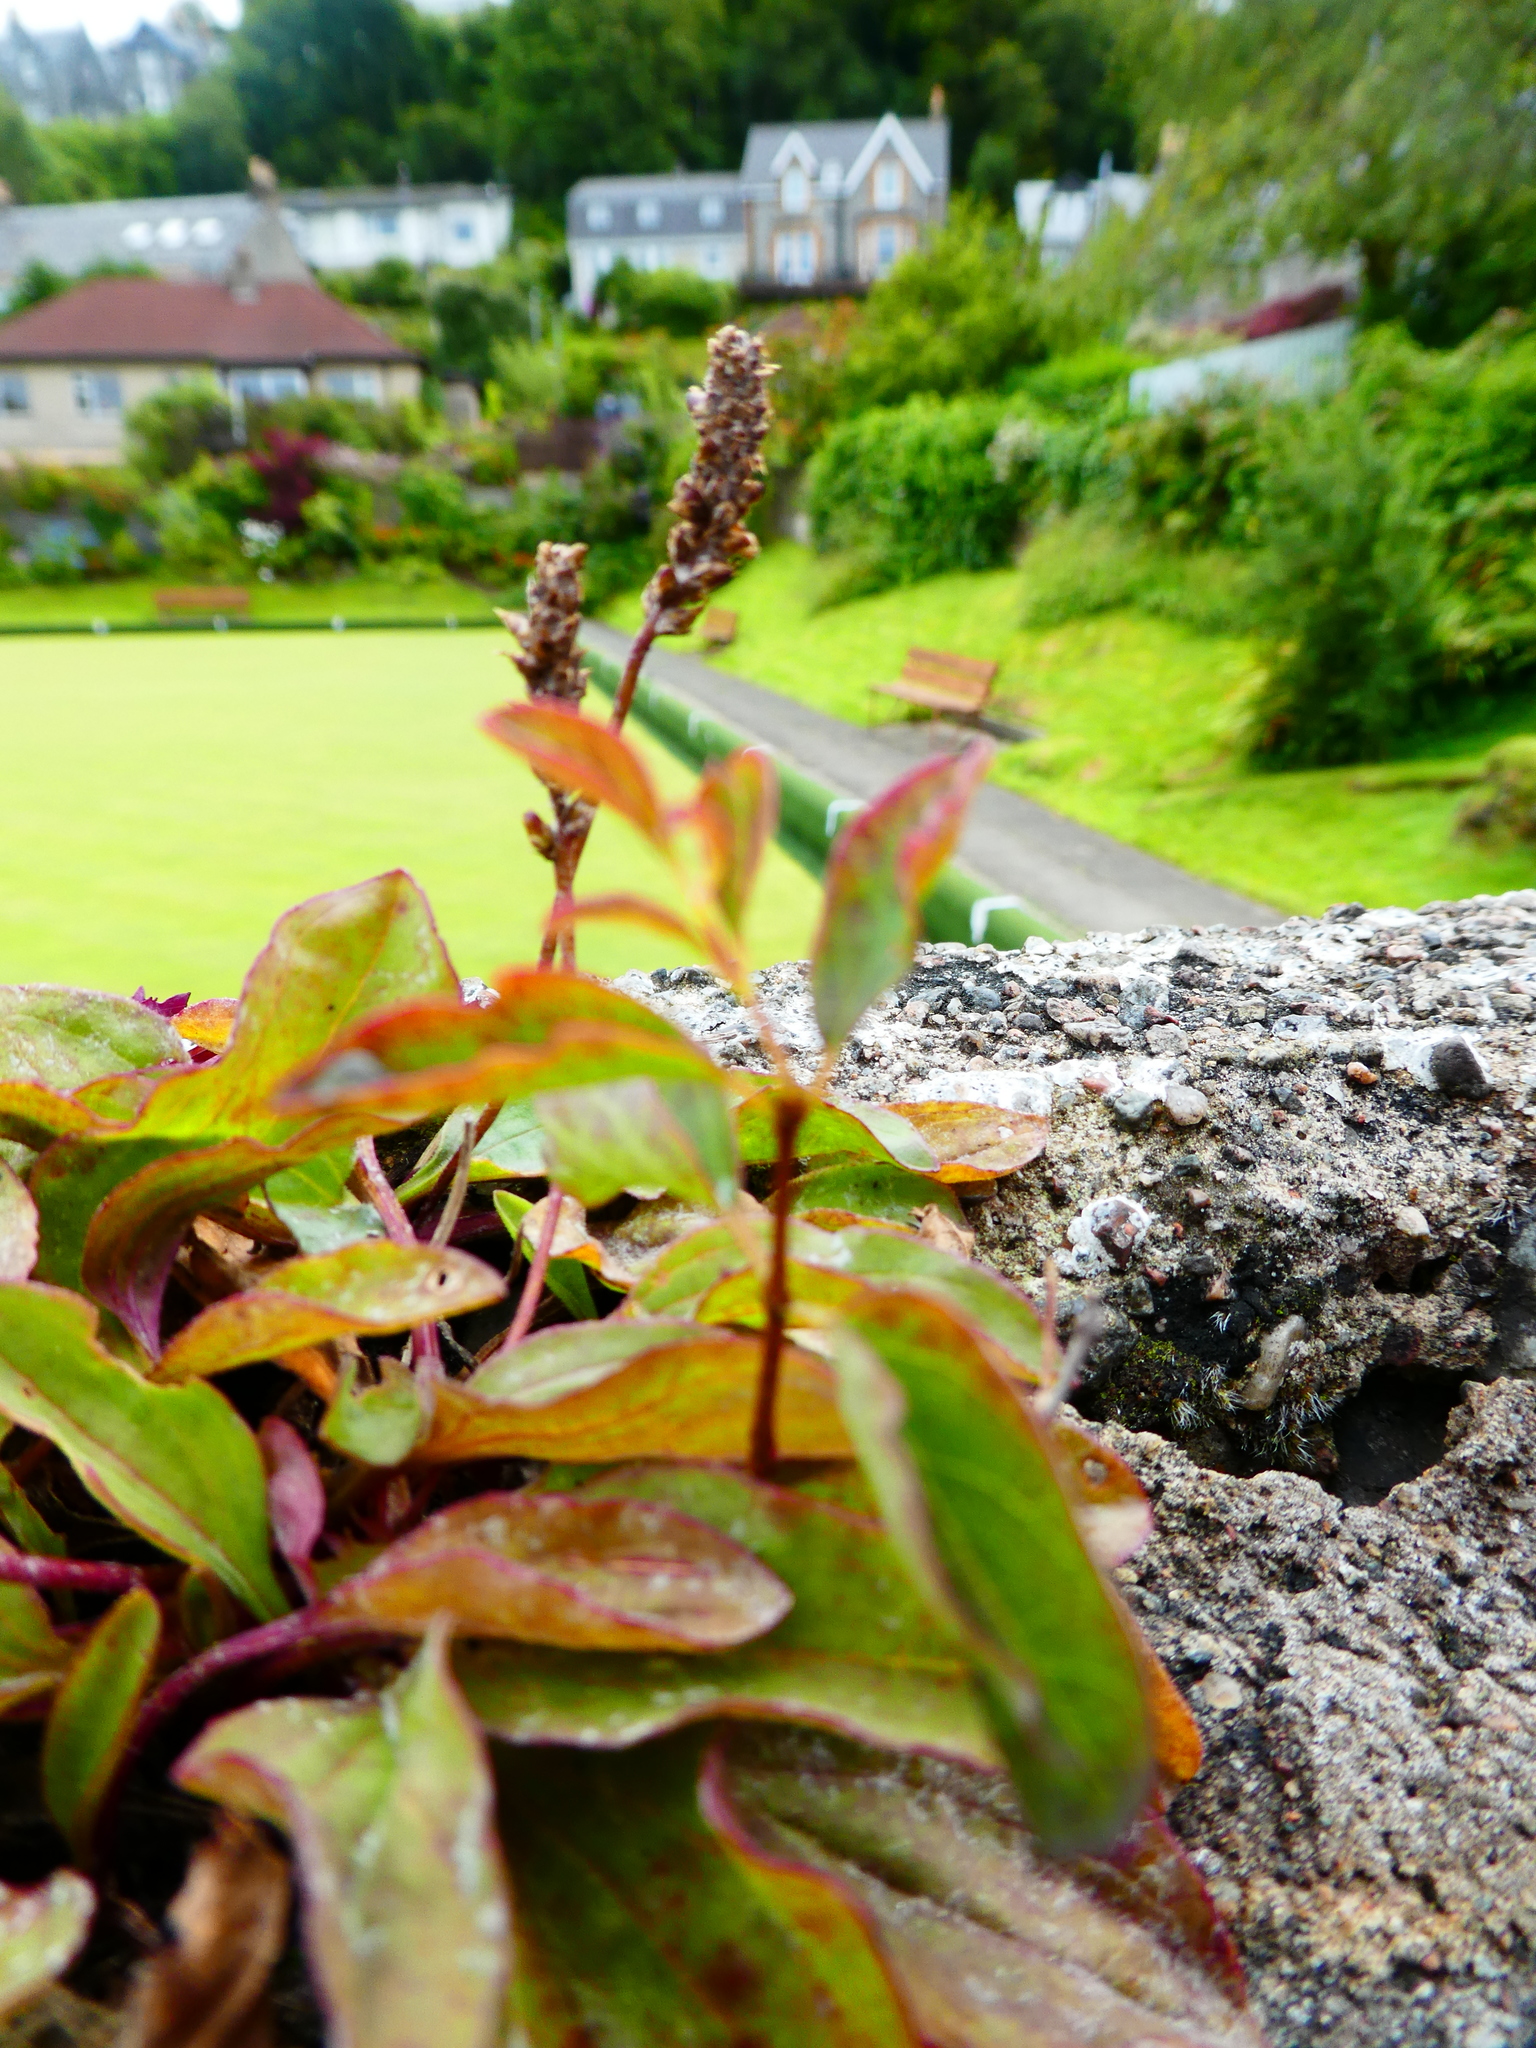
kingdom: Plantae
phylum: Tracheophyta
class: Magnoliopsida
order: Lamiales
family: Plantaginaceae
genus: Plantago
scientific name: Plantago major
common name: Common plantain
